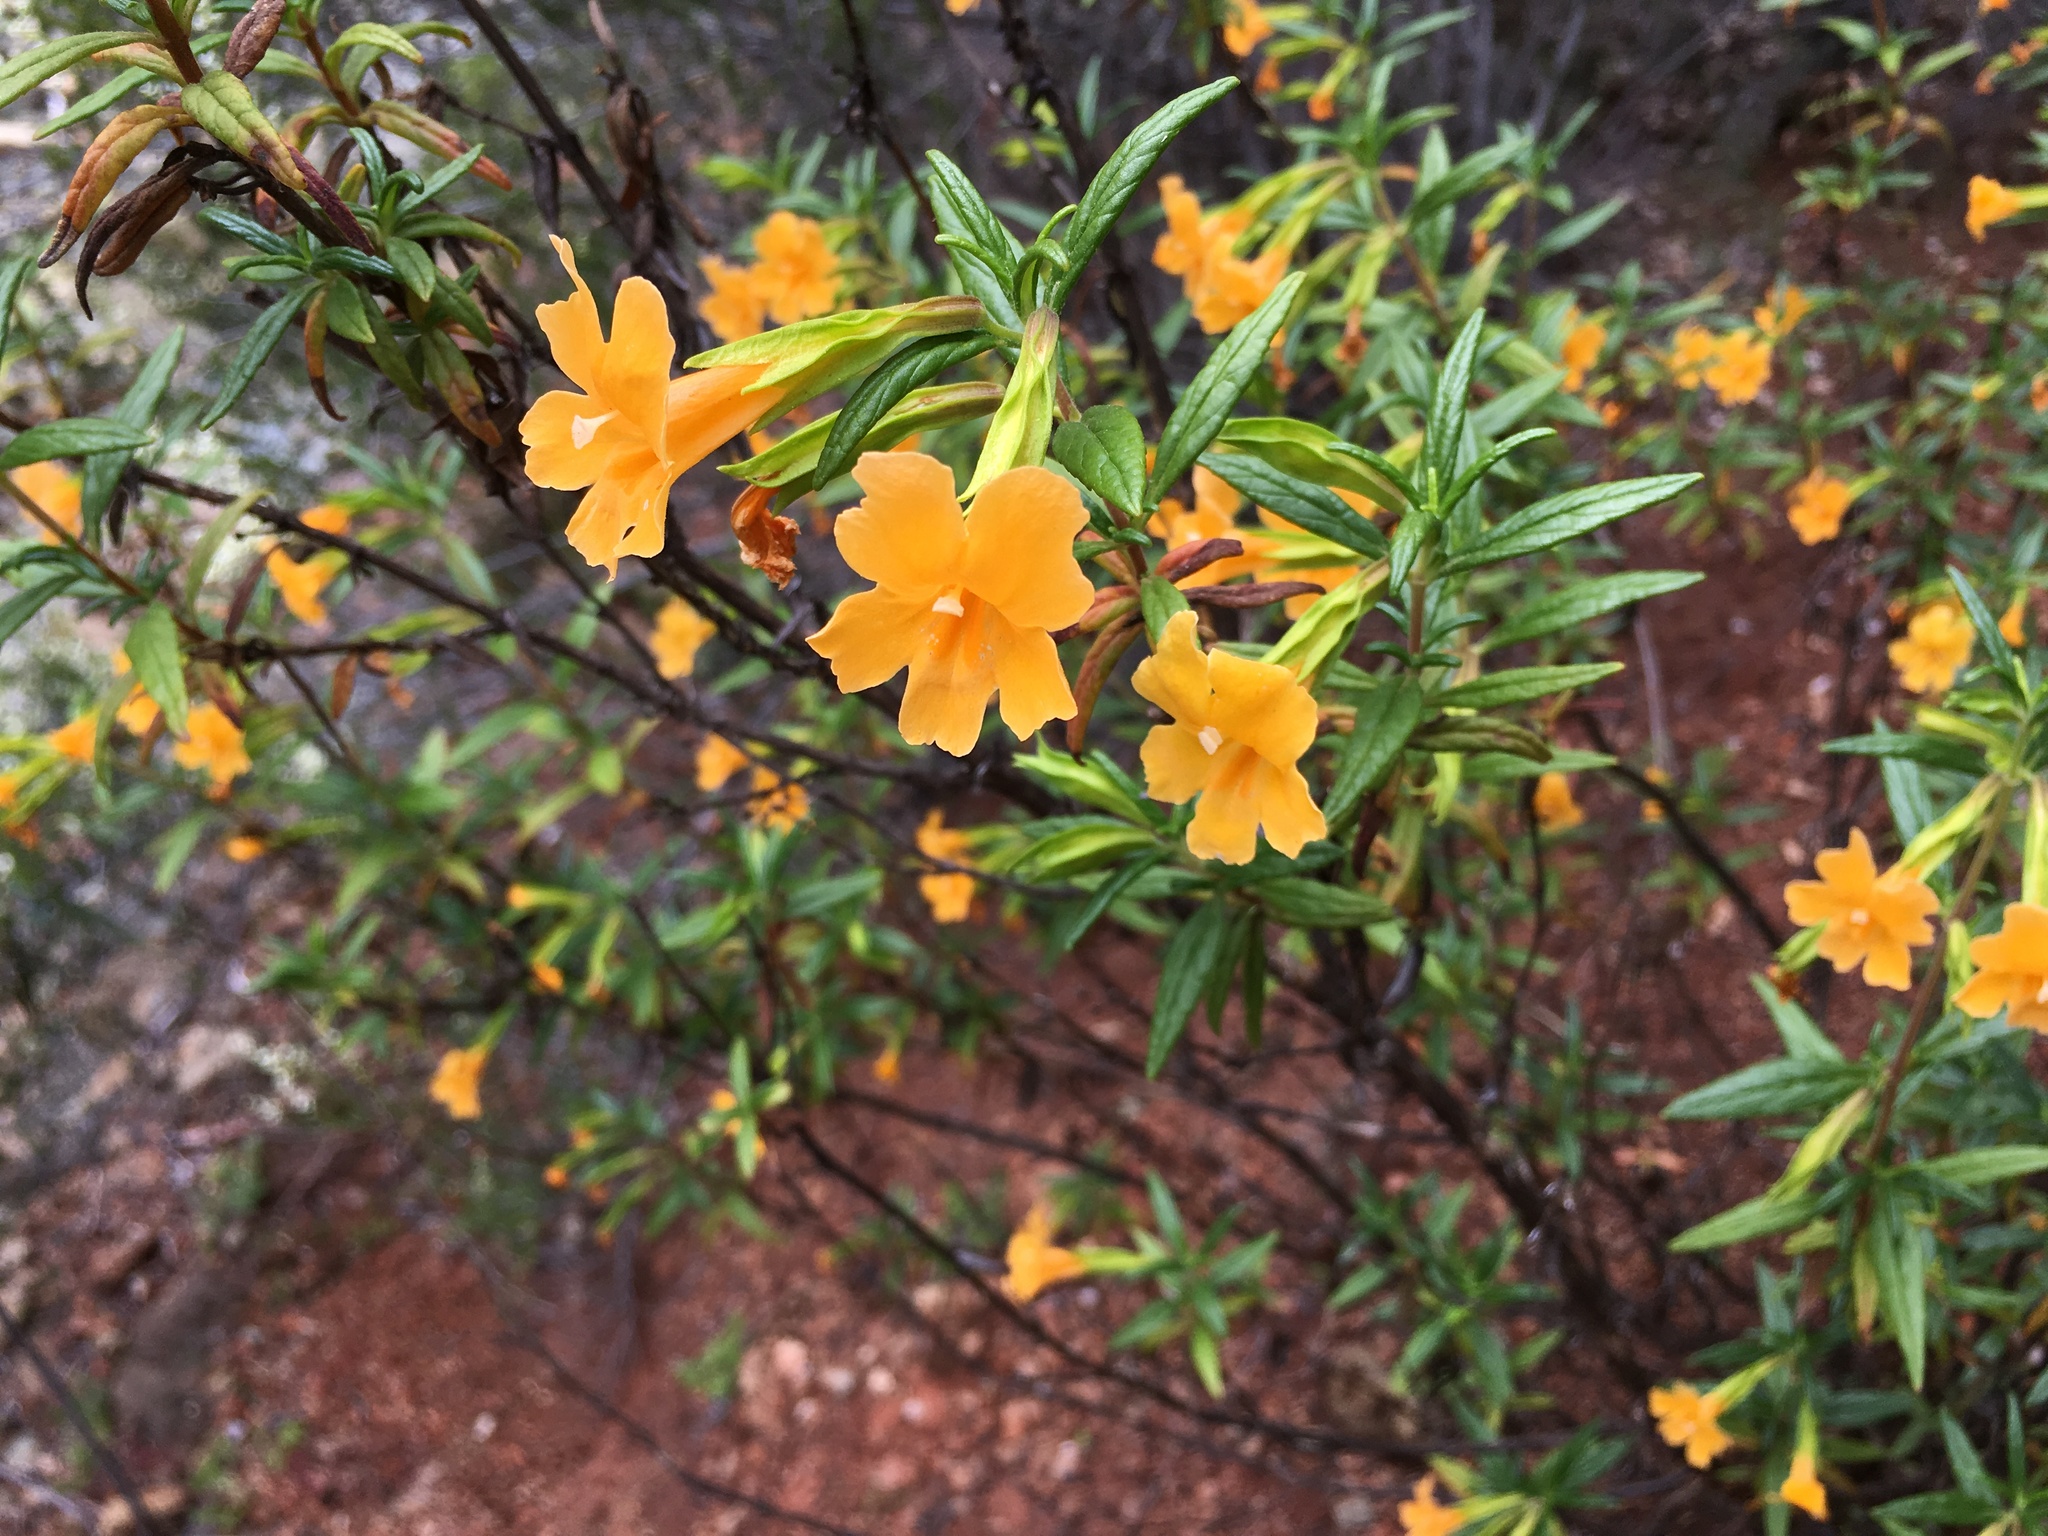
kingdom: Plantae
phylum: Tracheophyta
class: Magnoliopsida
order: Lamiales
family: Phrymaceae
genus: Diplacus
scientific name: Diplacus aurantiacus
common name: Bush monkey-flower
